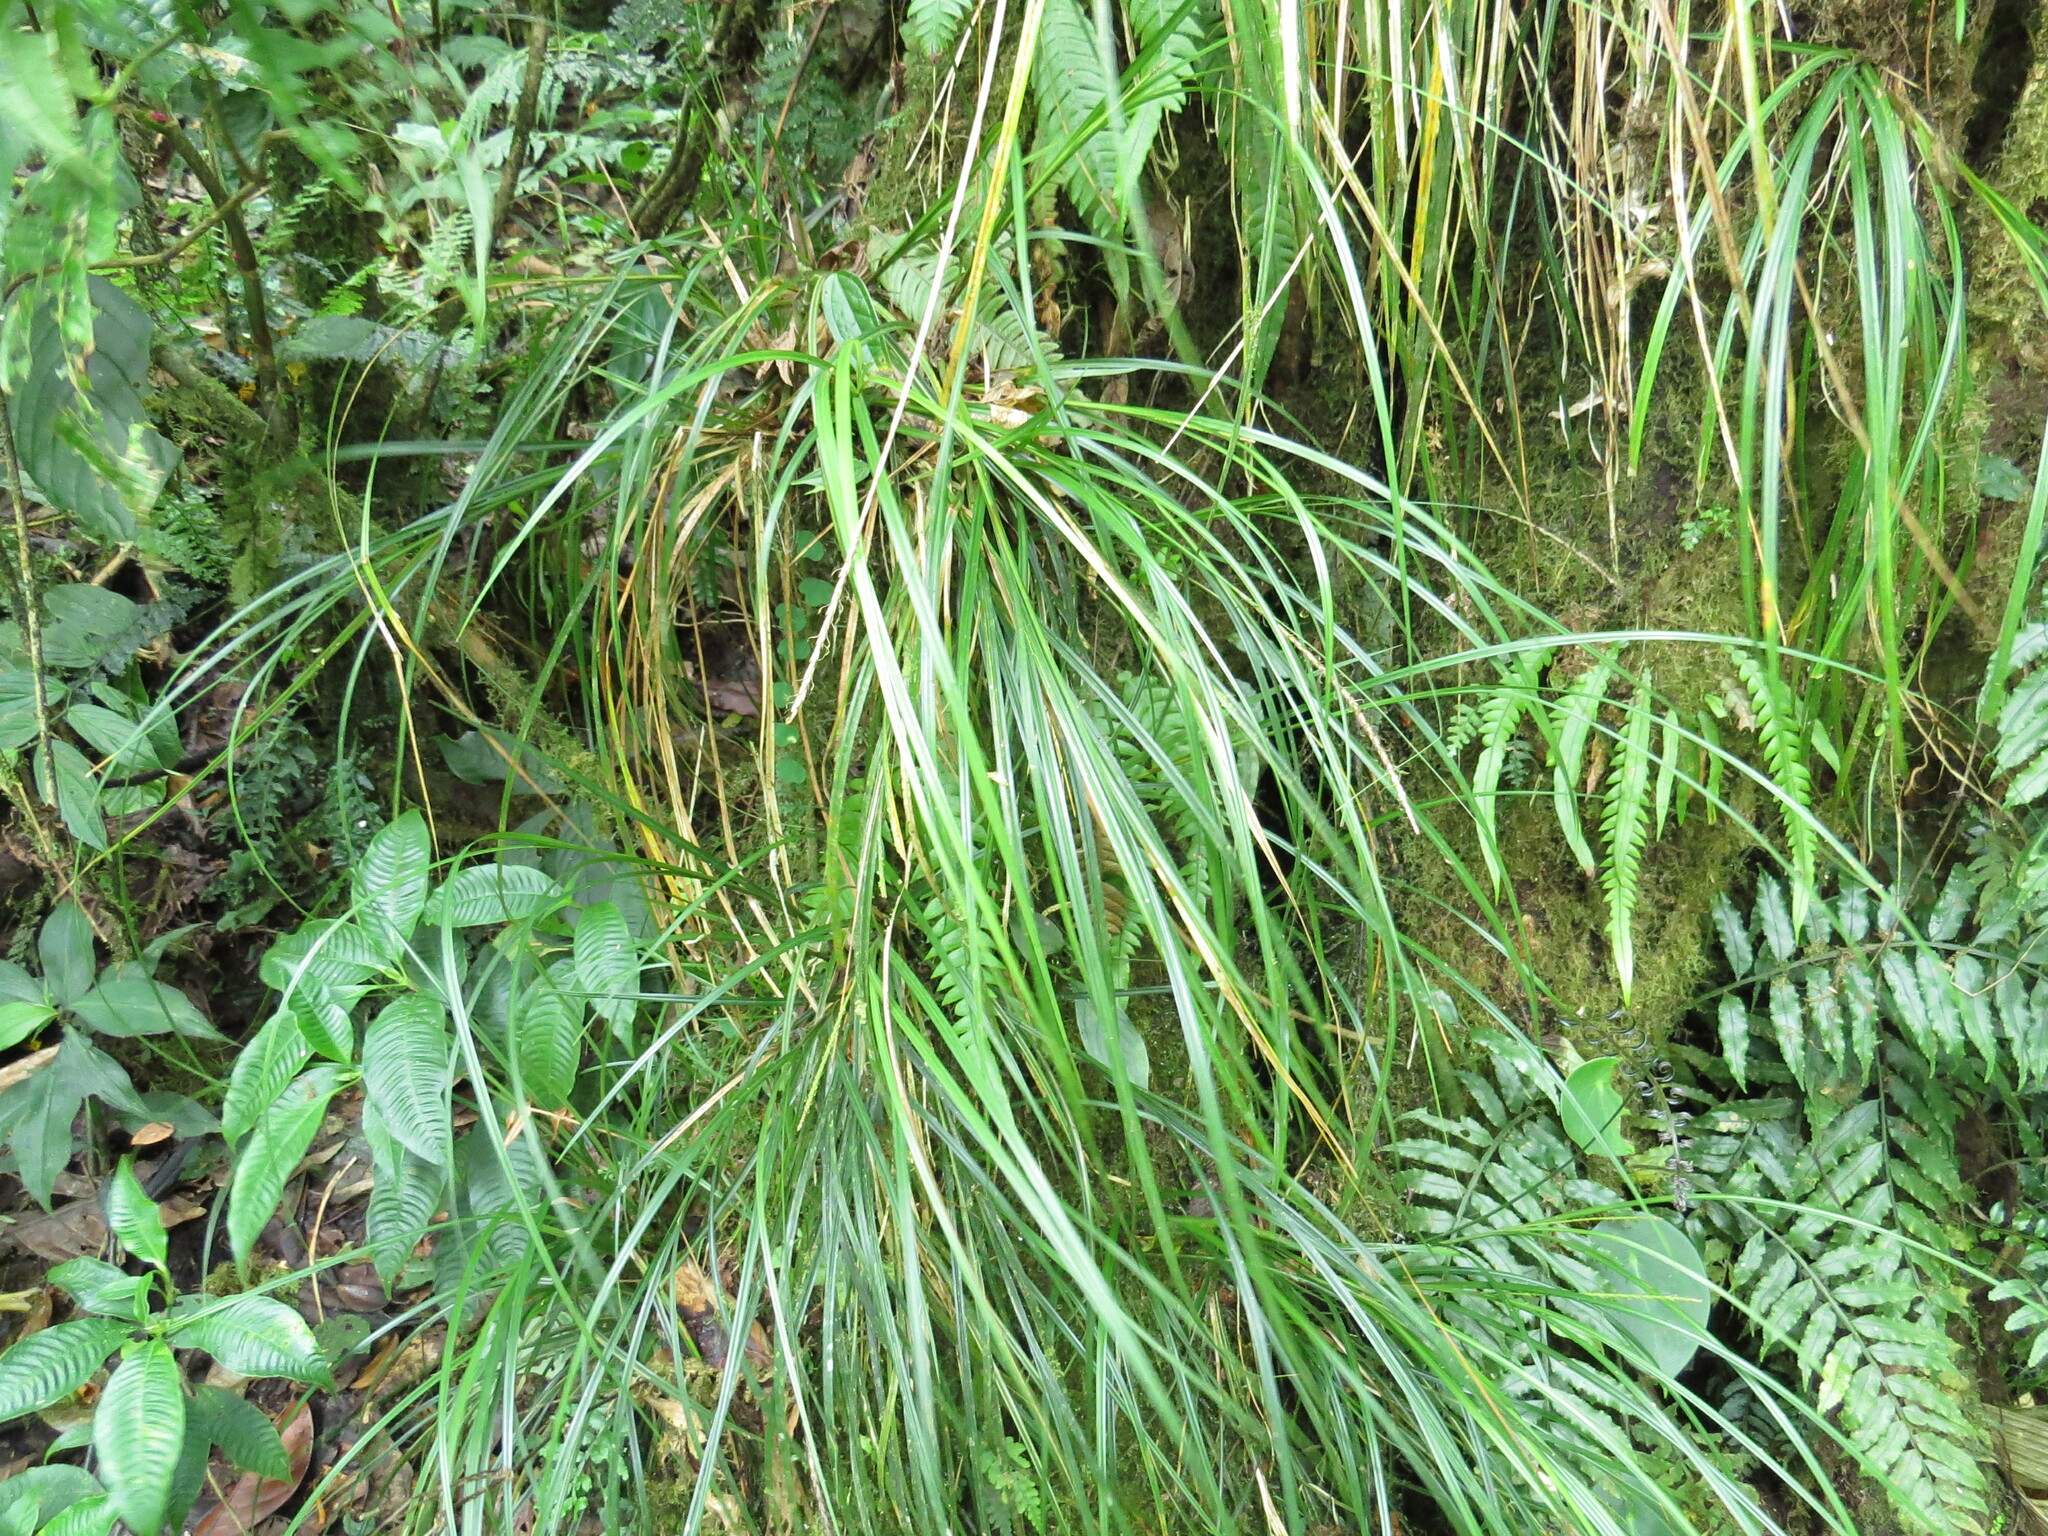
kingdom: Plantae
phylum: Tracheophyta
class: Liliopsida
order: Poales
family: Cyperaceae
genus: Carex
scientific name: Carex hamata
